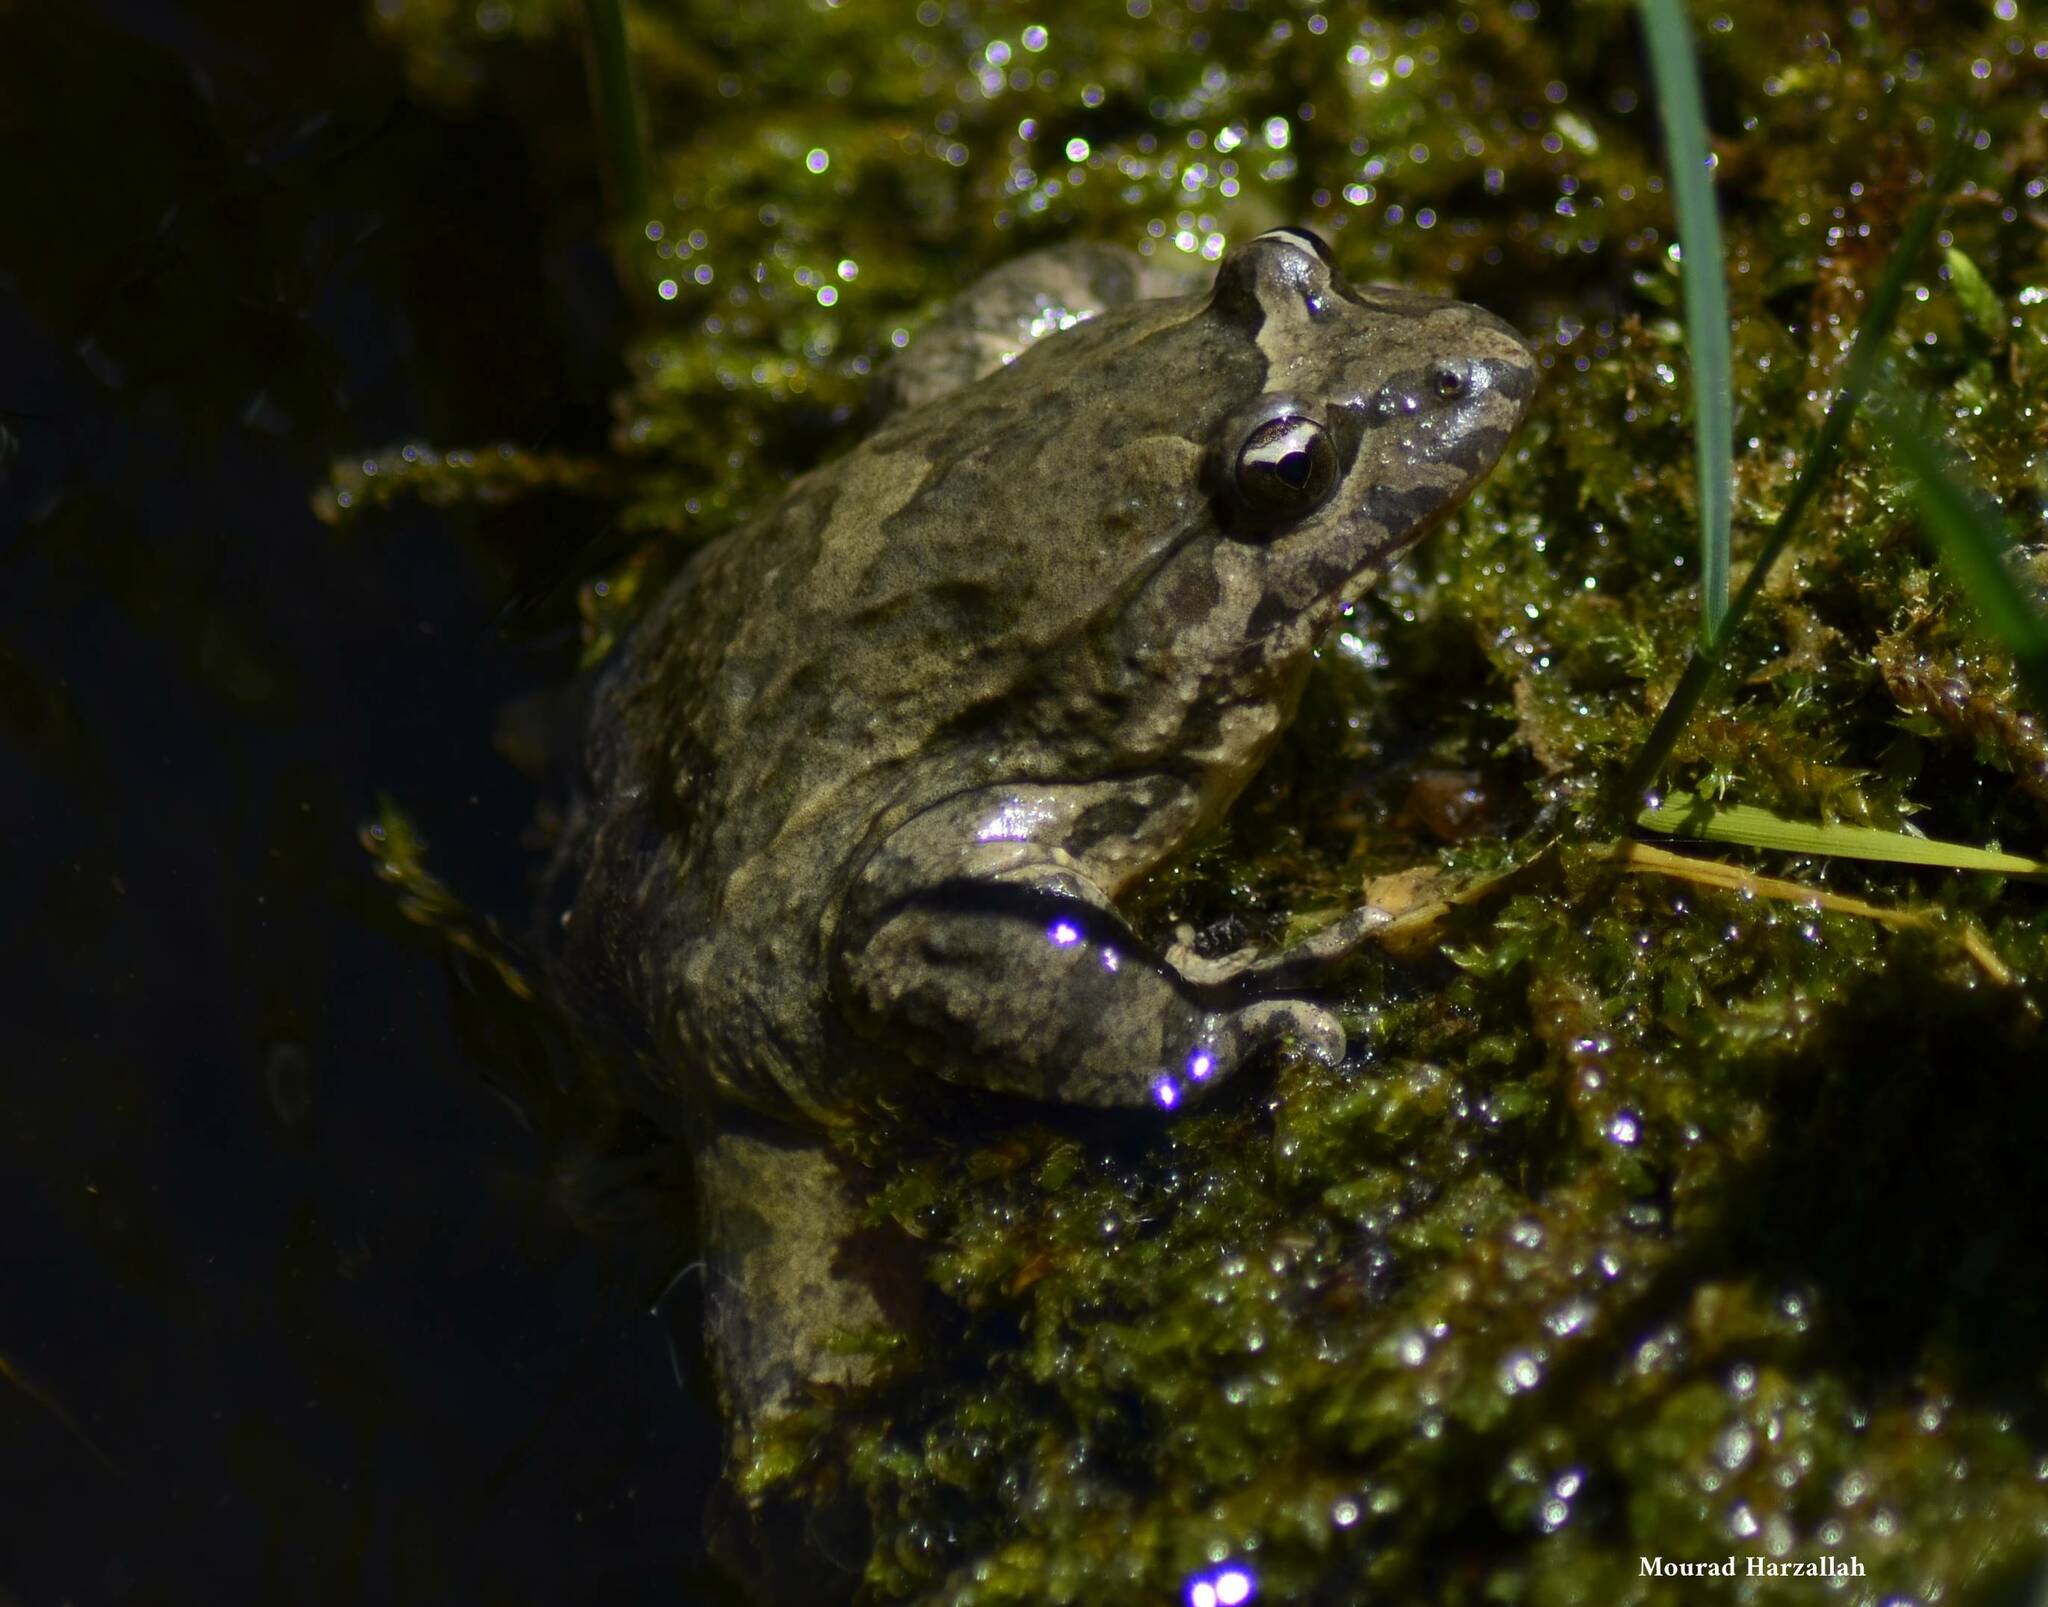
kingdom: Animalia
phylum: Chordata
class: Amphibia
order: Anura
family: Alytidae
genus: Discoglossus
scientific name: Discoglossus pictus
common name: Painted frog
